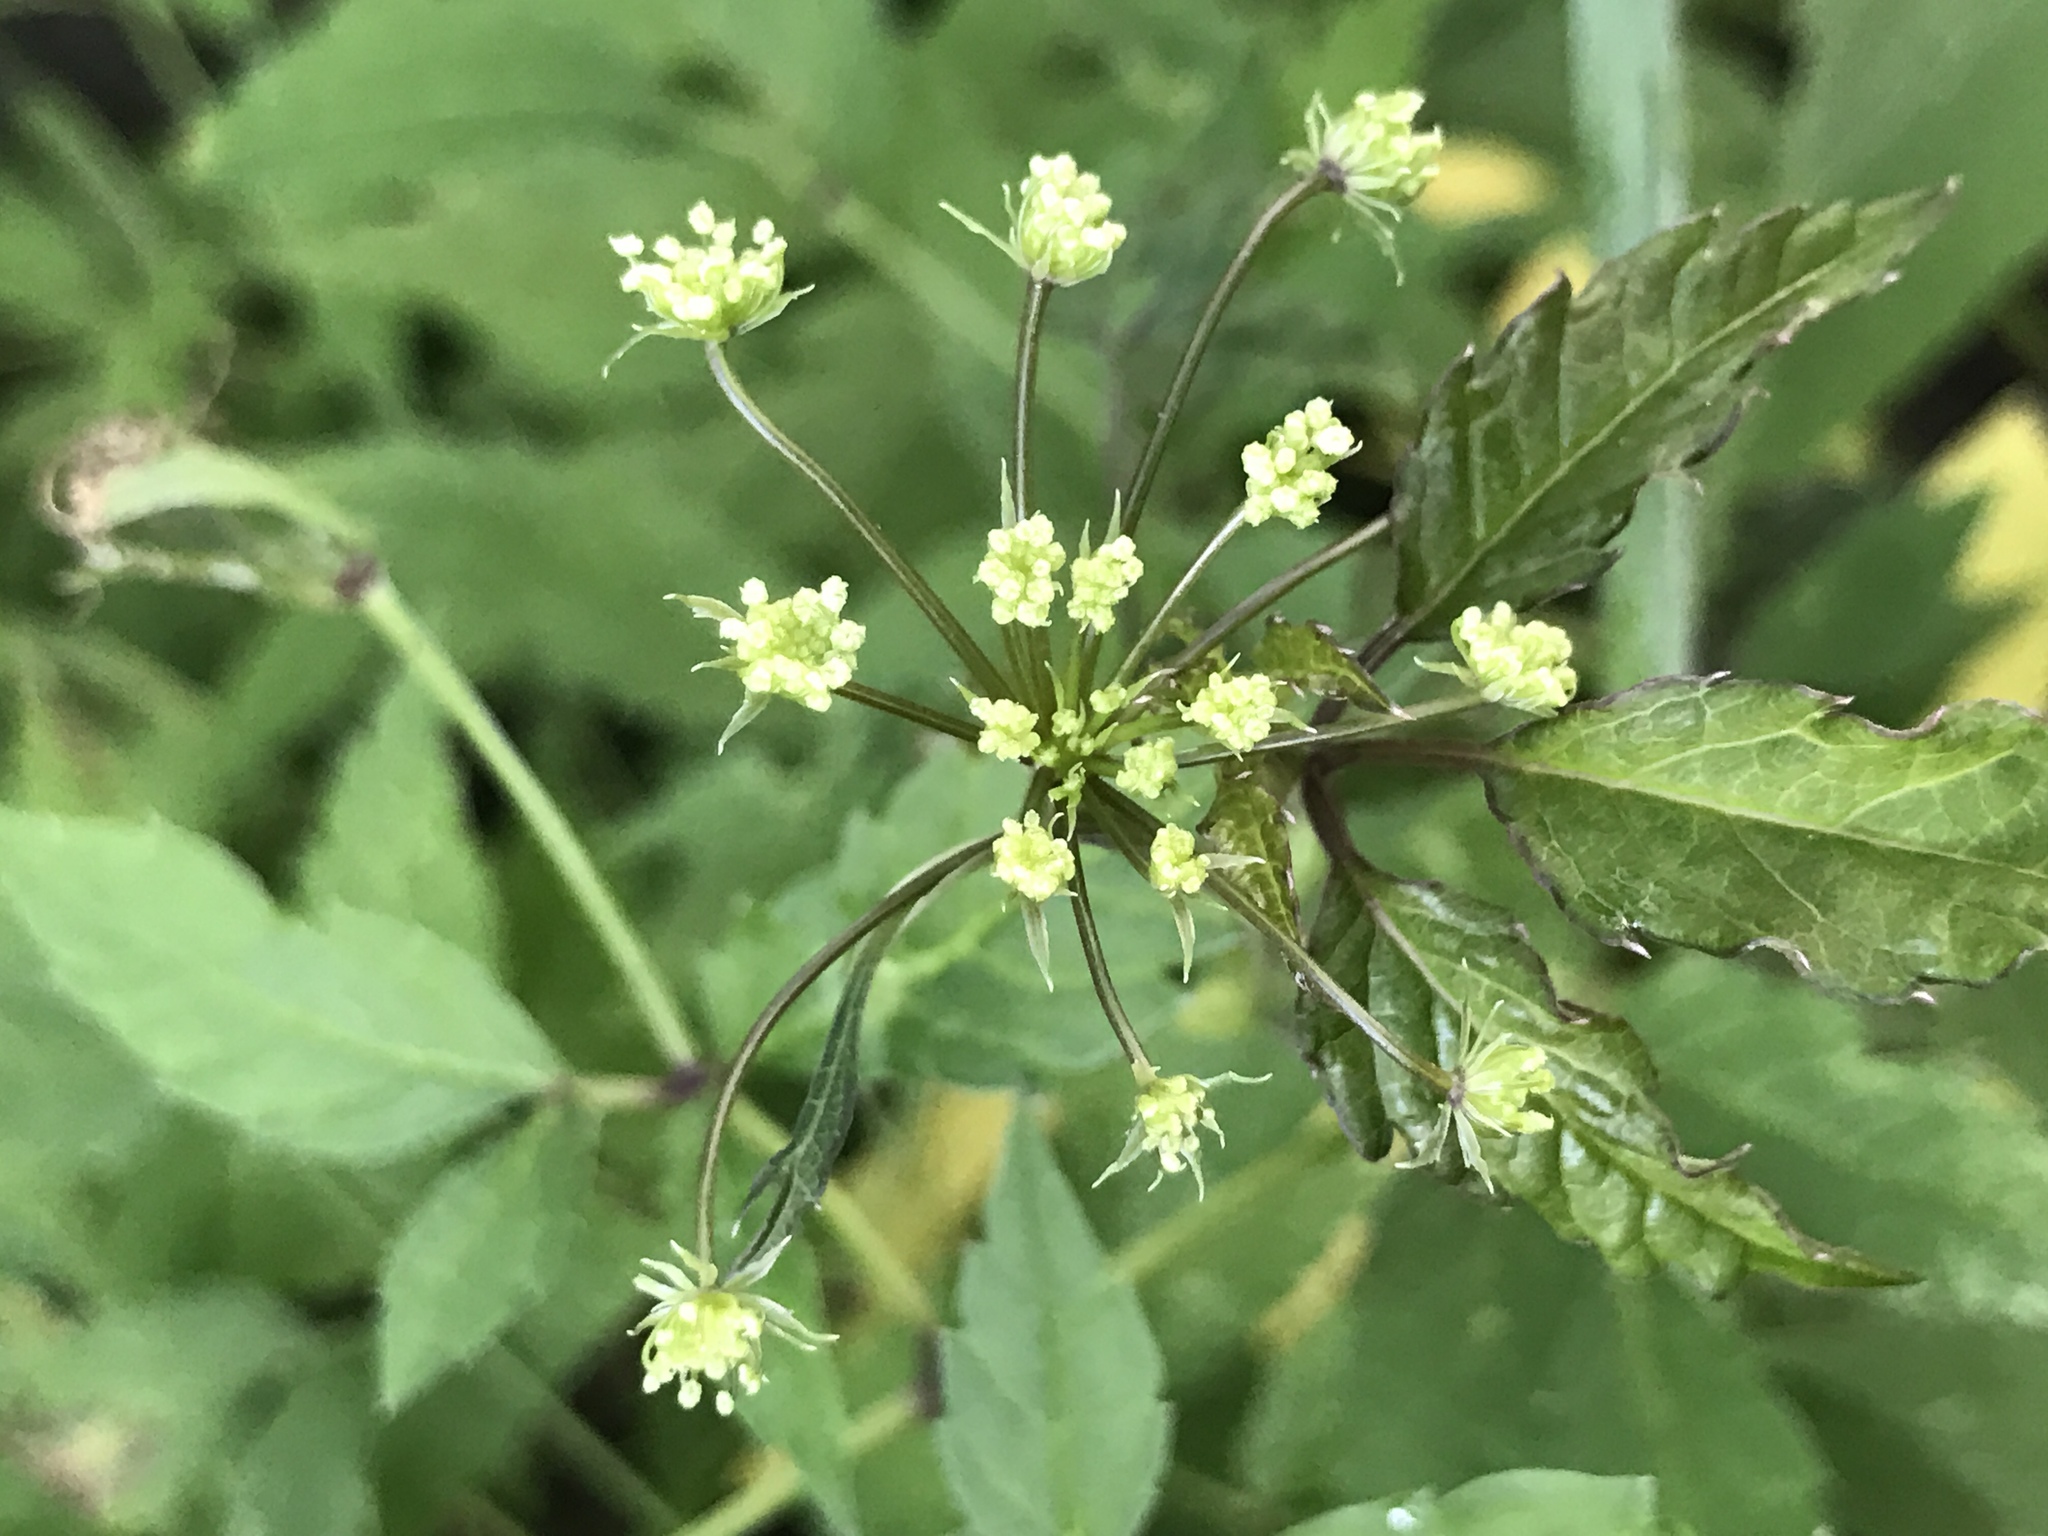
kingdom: Plantae
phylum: Tracheophyta
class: Magnoliopsida
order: Apiales
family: Apiaceae
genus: Cicuta
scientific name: Cicuta maculata
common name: Spotted cowbane
